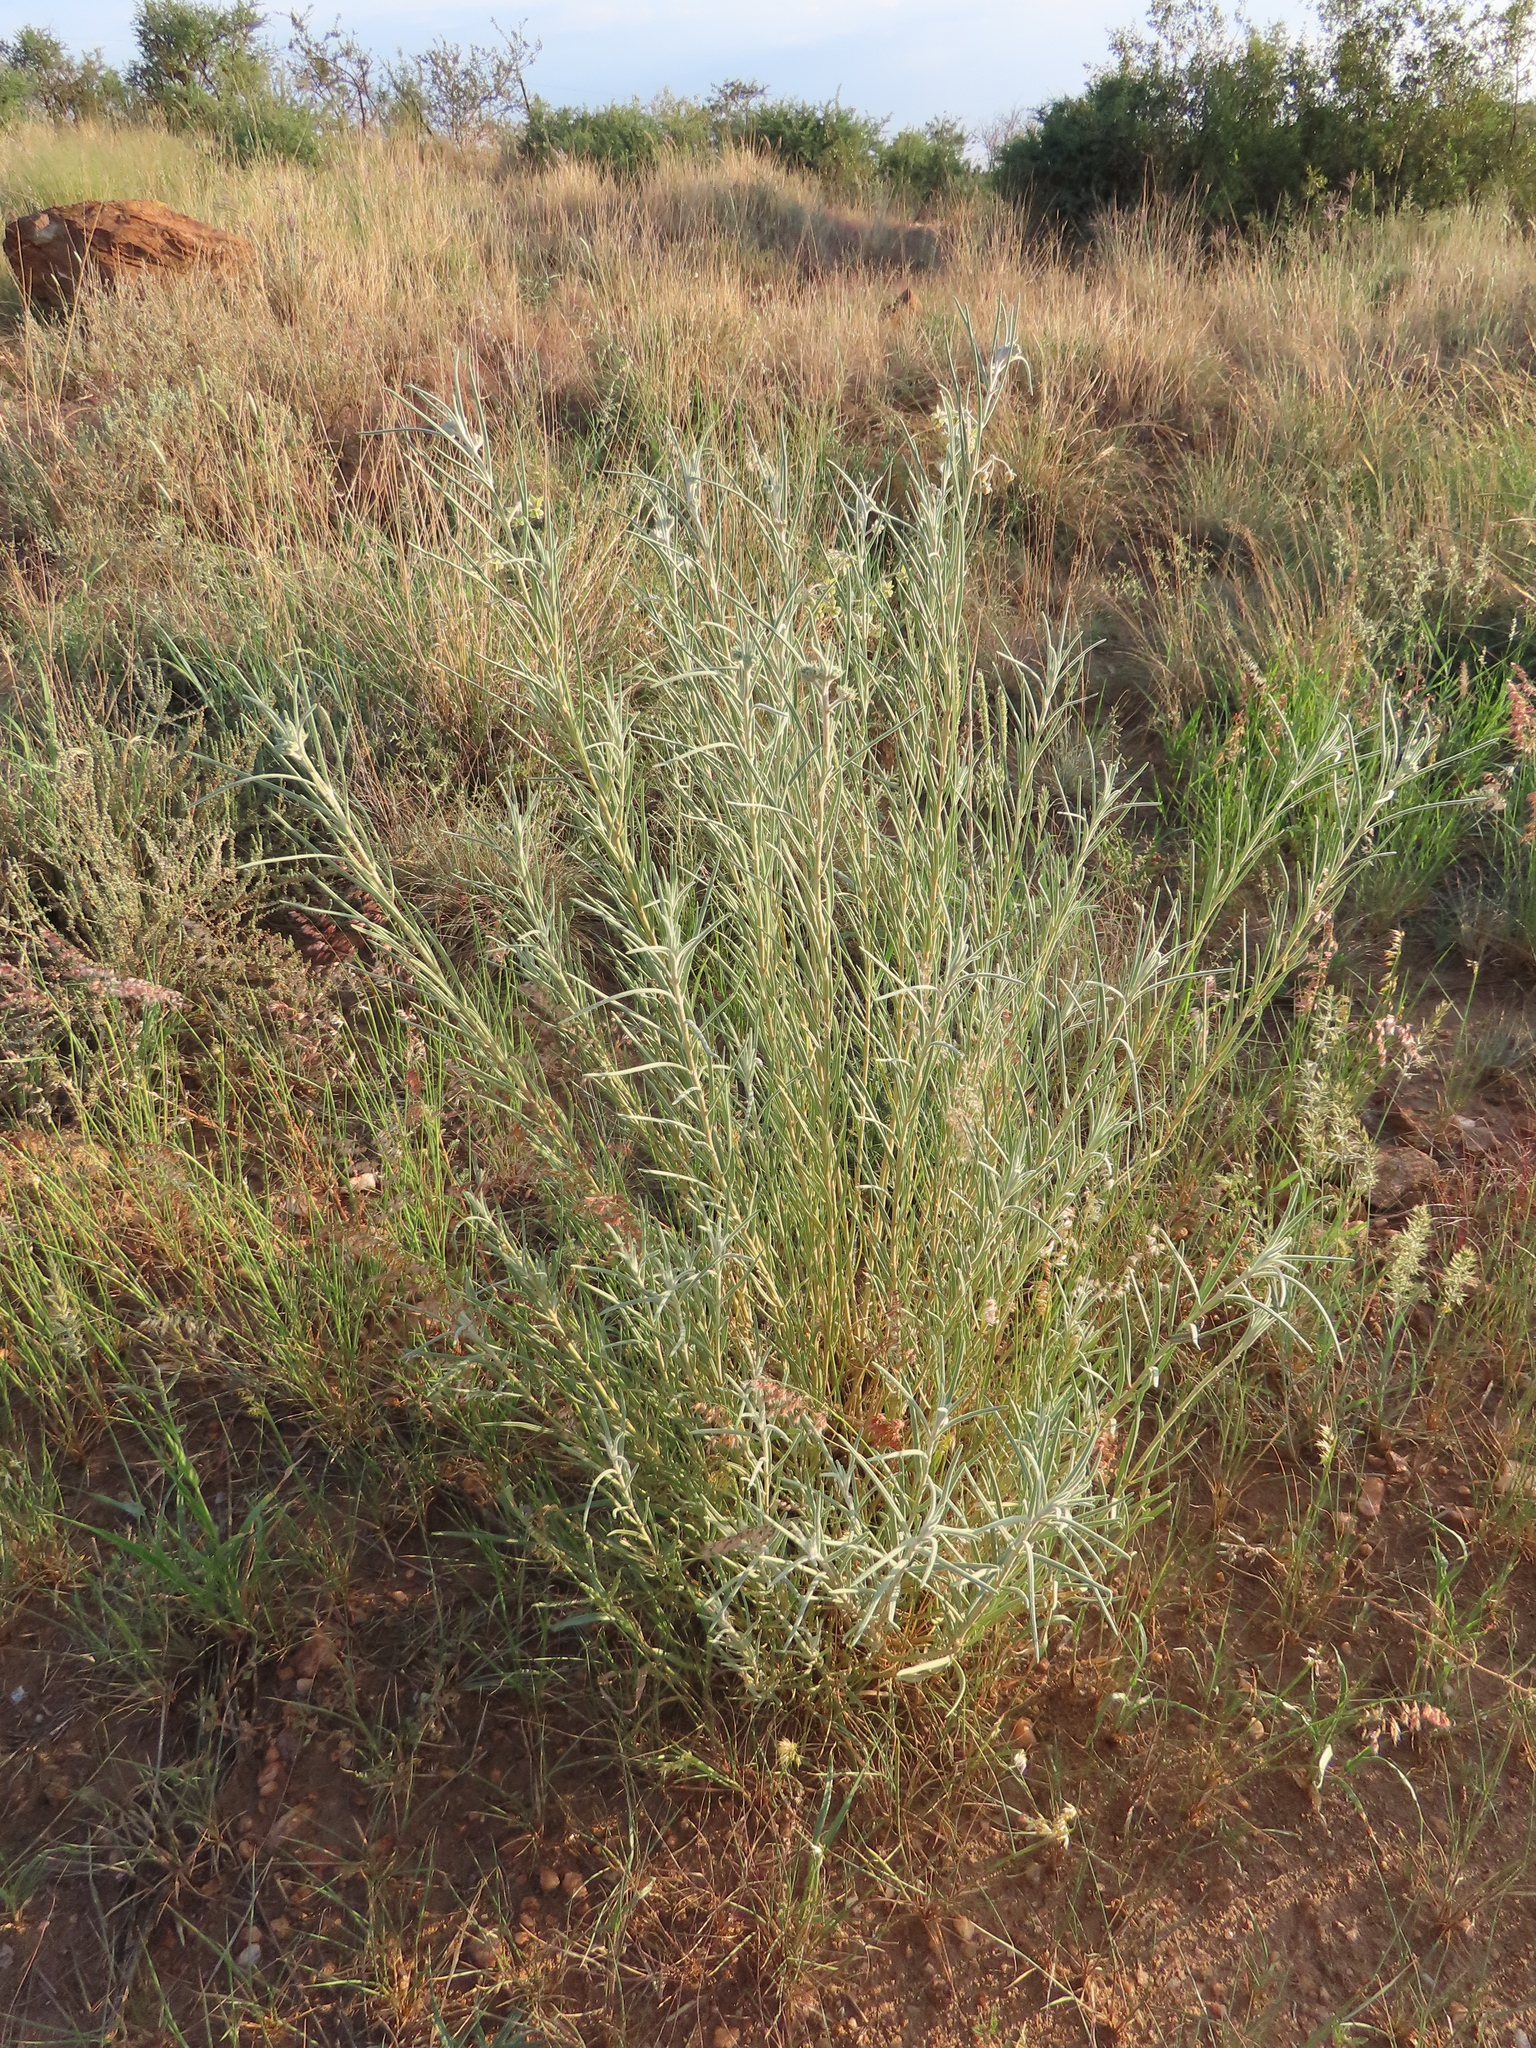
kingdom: Plantae
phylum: Tracheophyta
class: Magnoliopsida
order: Gentianales
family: Apocynaceae
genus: Gomphocarpus
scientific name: Gomphocarpus tomentosus
